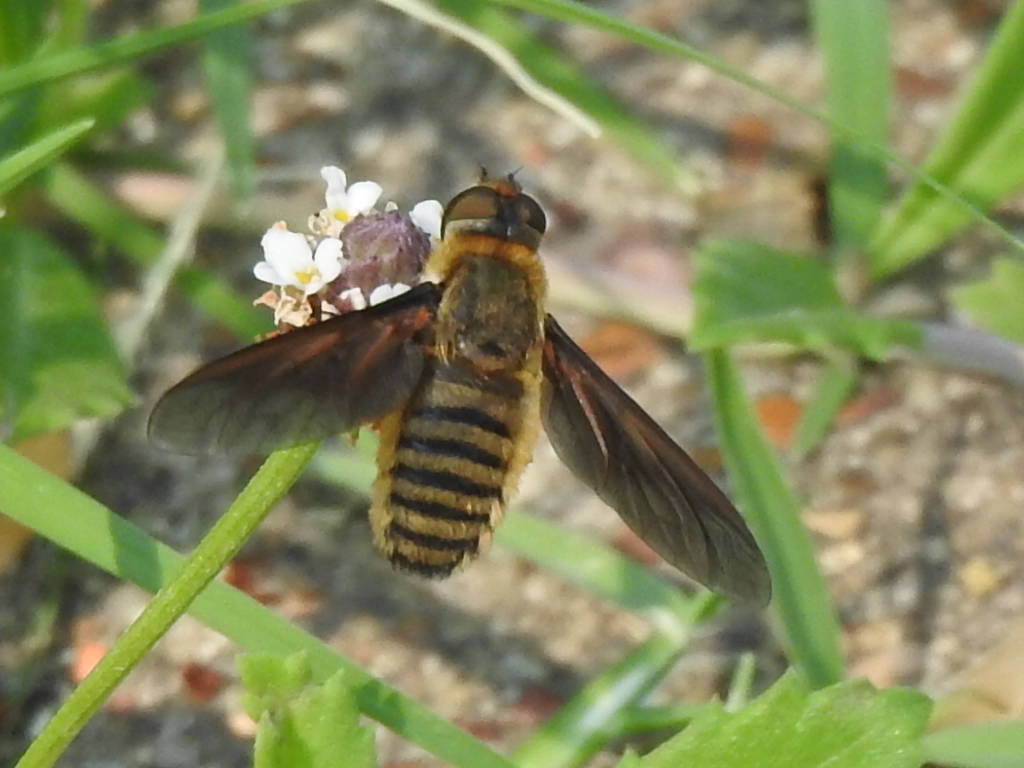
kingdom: Animalia
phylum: Arthropoda
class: Insecta
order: Diptera
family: Bombyliidae
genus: Poecilanthrax
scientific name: Poecilanthrax lucifer
